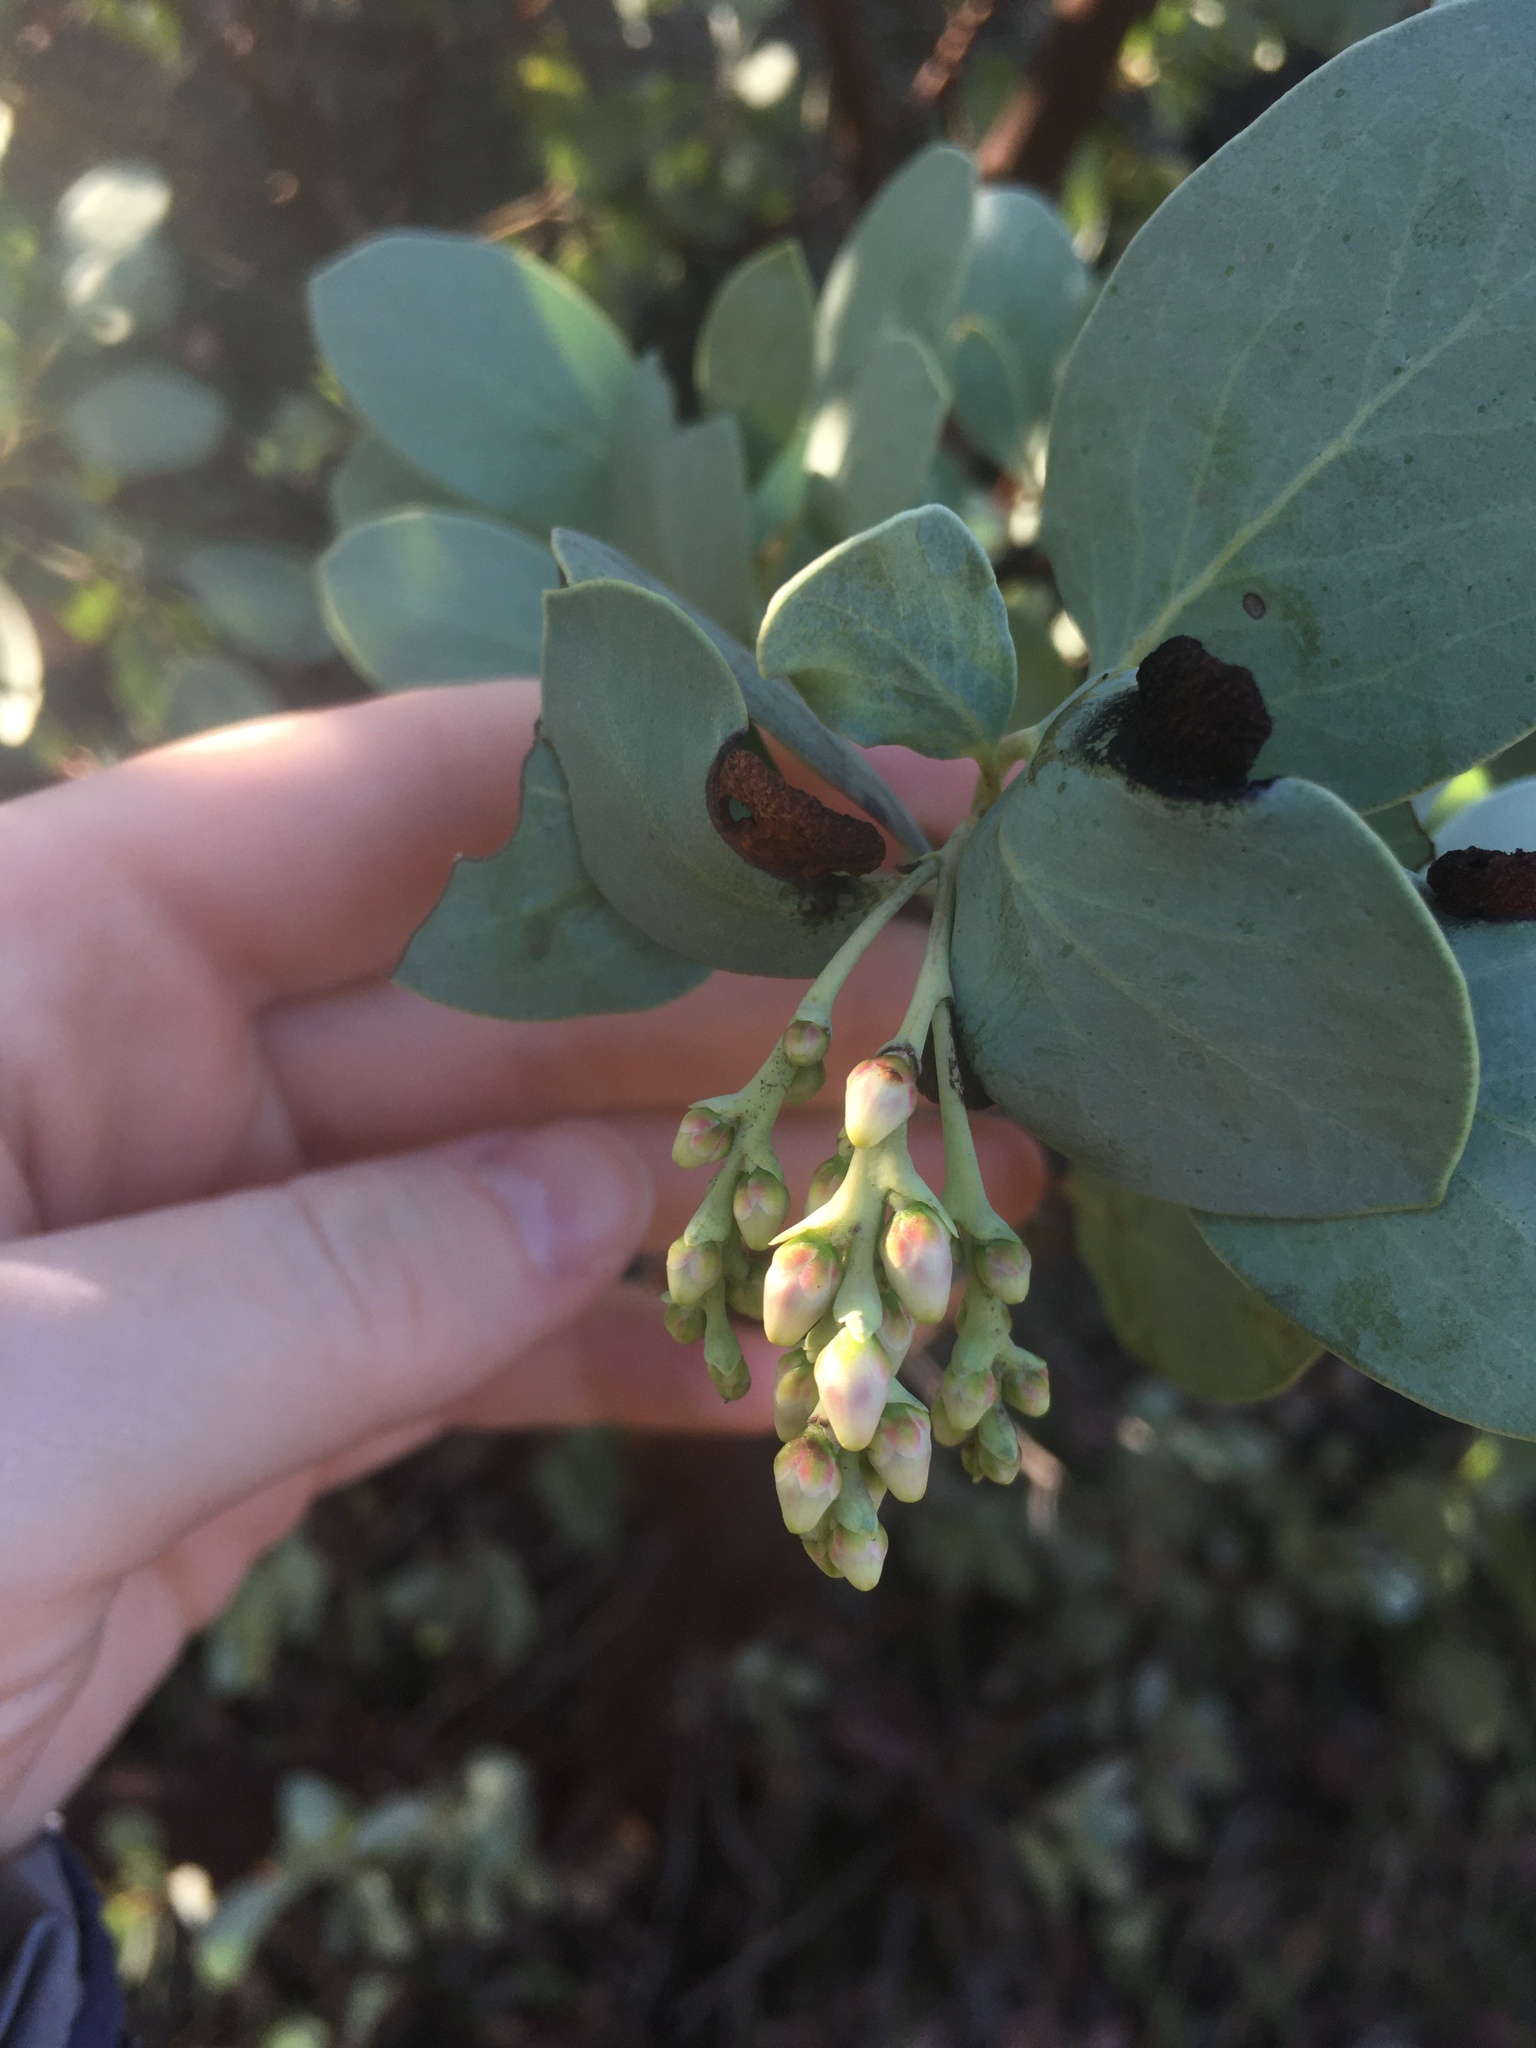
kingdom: Plantae
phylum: Tracheophyta
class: Magnoliopsida
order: Ericales
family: Ericaceae
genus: Arctostaphylos
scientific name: Arctostaphylos glauca
